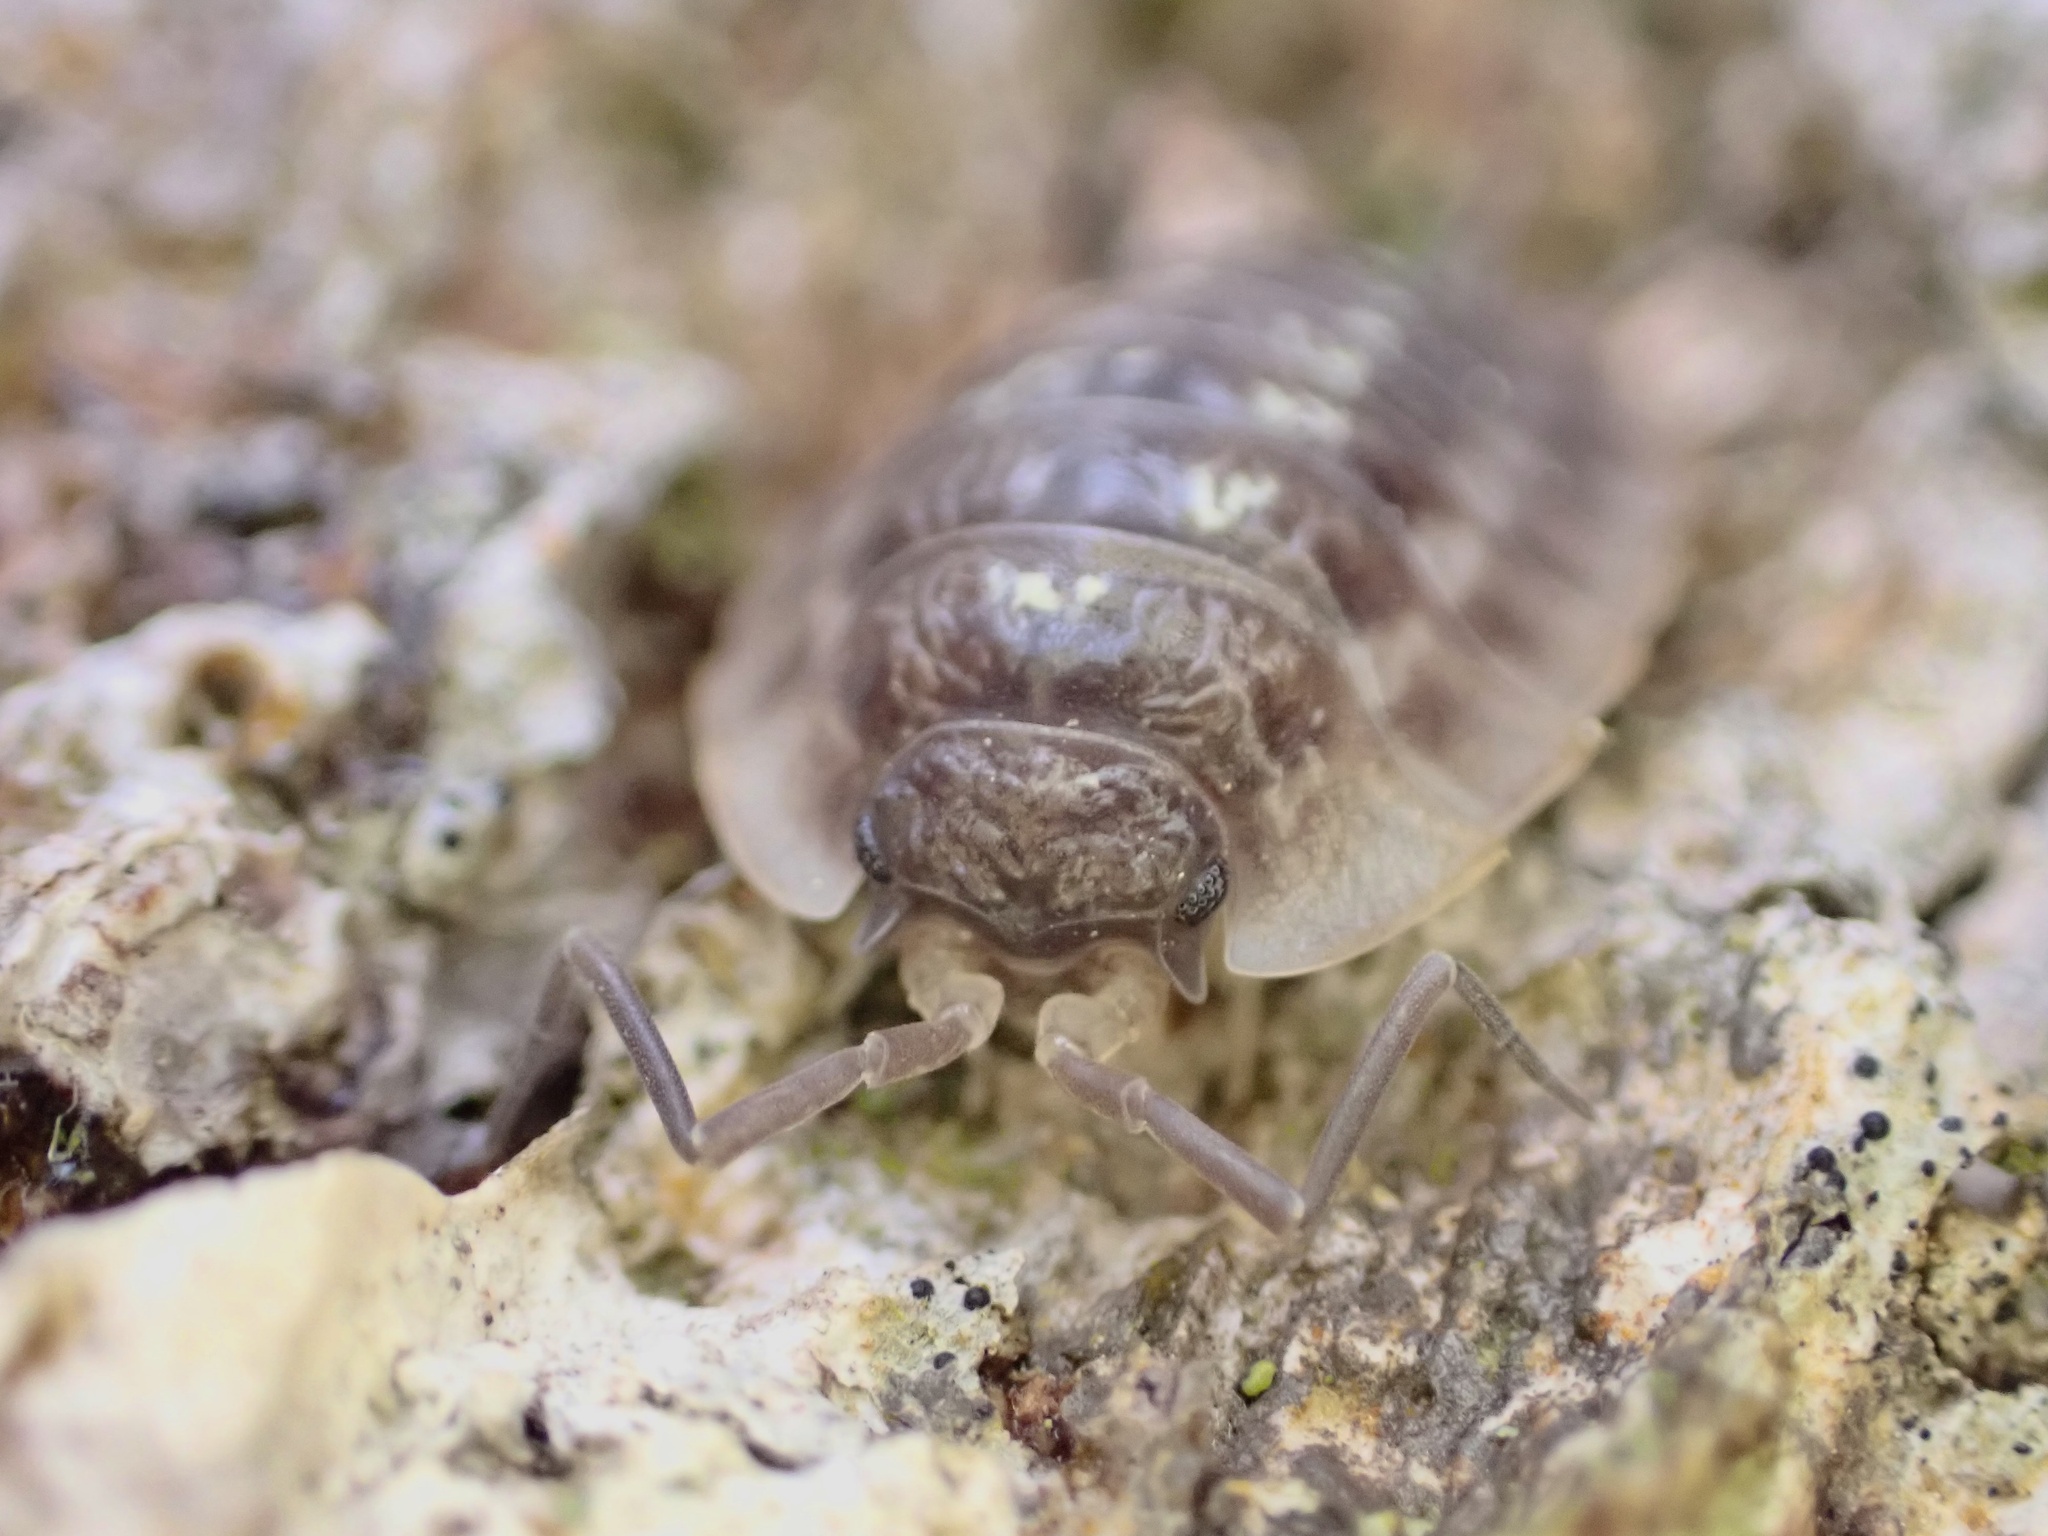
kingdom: Animalia
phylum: Arthropoda
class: Malacostraca
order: Isopoda
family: Oniscidae
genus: Oniscus
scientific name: Oniscus asellus
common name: Common shiny woodlouse
